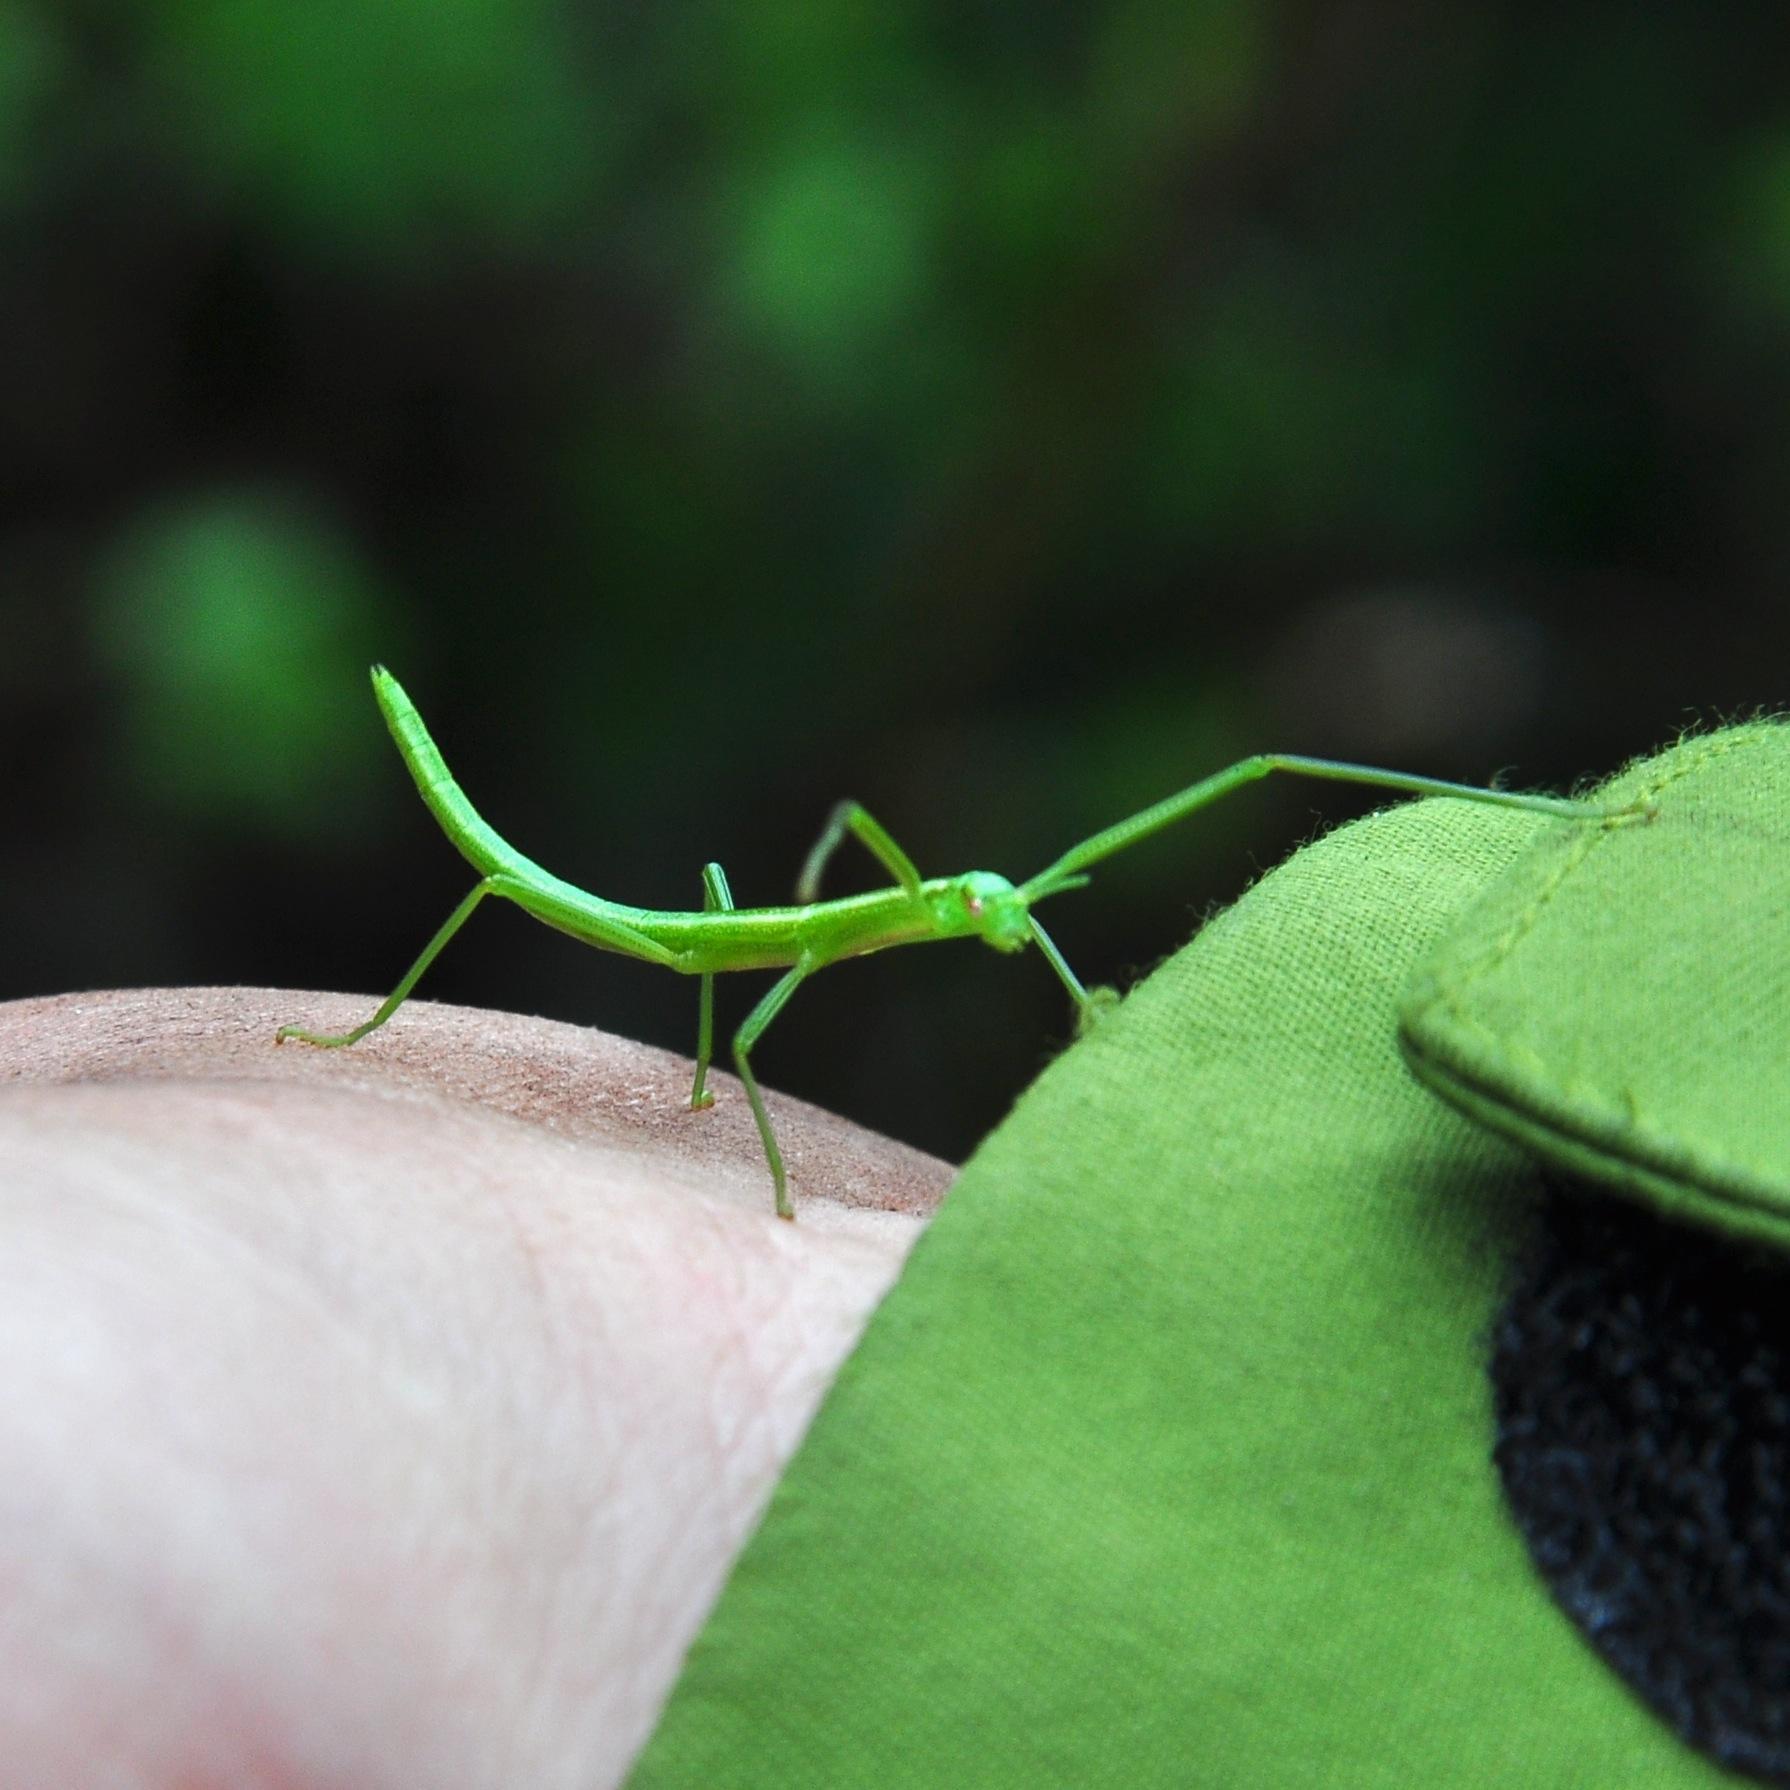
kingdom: Animalia
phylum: Arthropoda
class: Insecta
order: Phasmida
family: Bacillidae
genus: Macynia
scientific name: Macynia labiata
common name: Thunberg's stick insect
